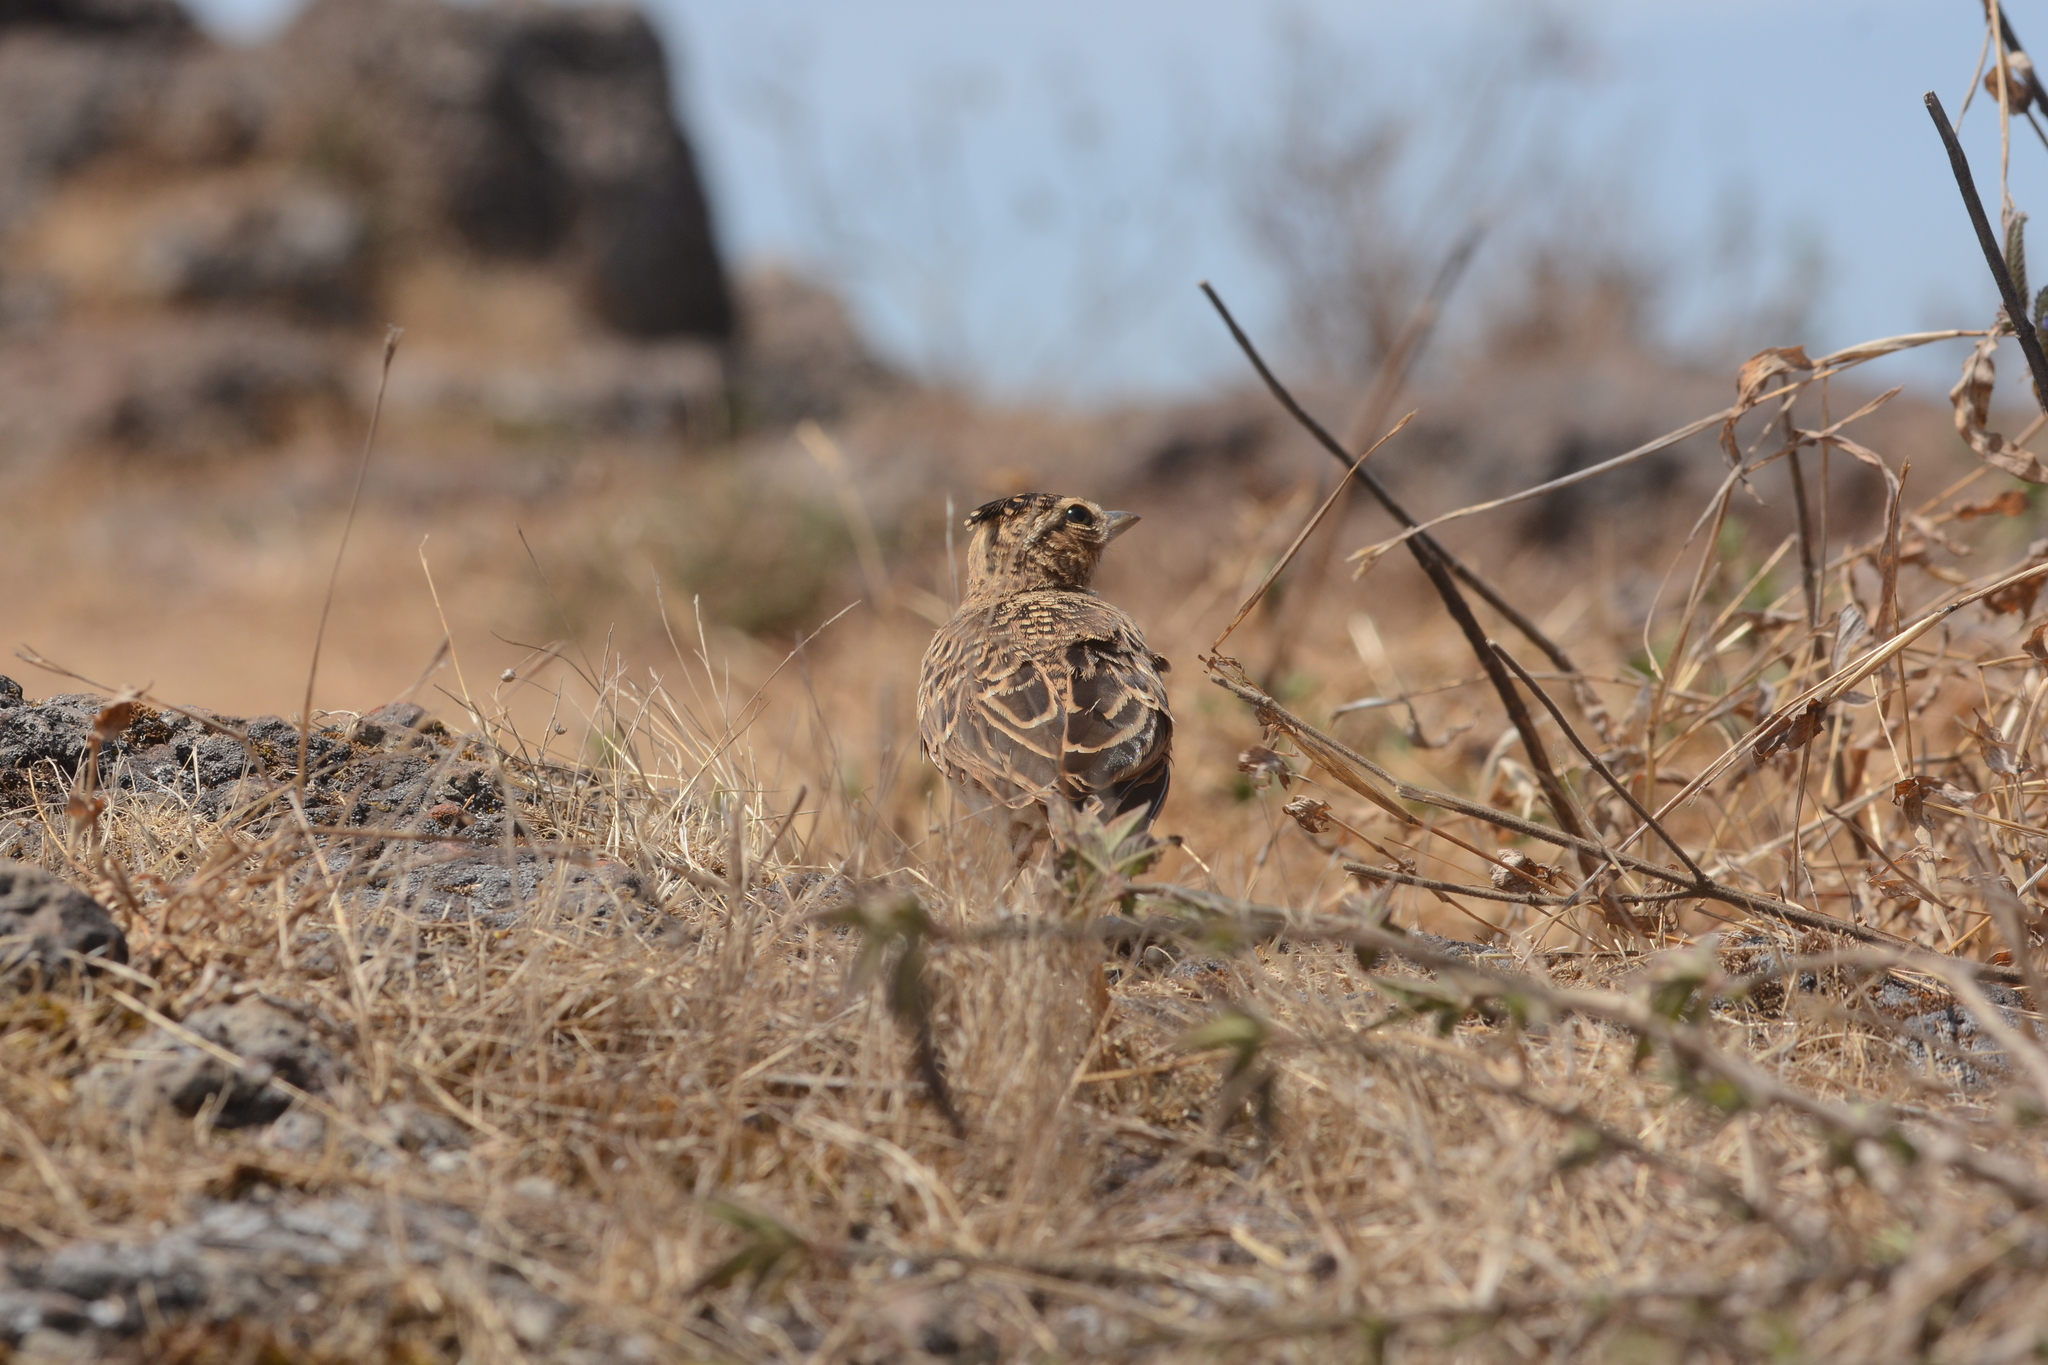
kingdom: Animalia
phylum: Chordata
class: Aves
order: Passeriformes
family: Alaudidae
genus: Galerida
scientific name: Galerida malabarica
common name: Malabar lark
